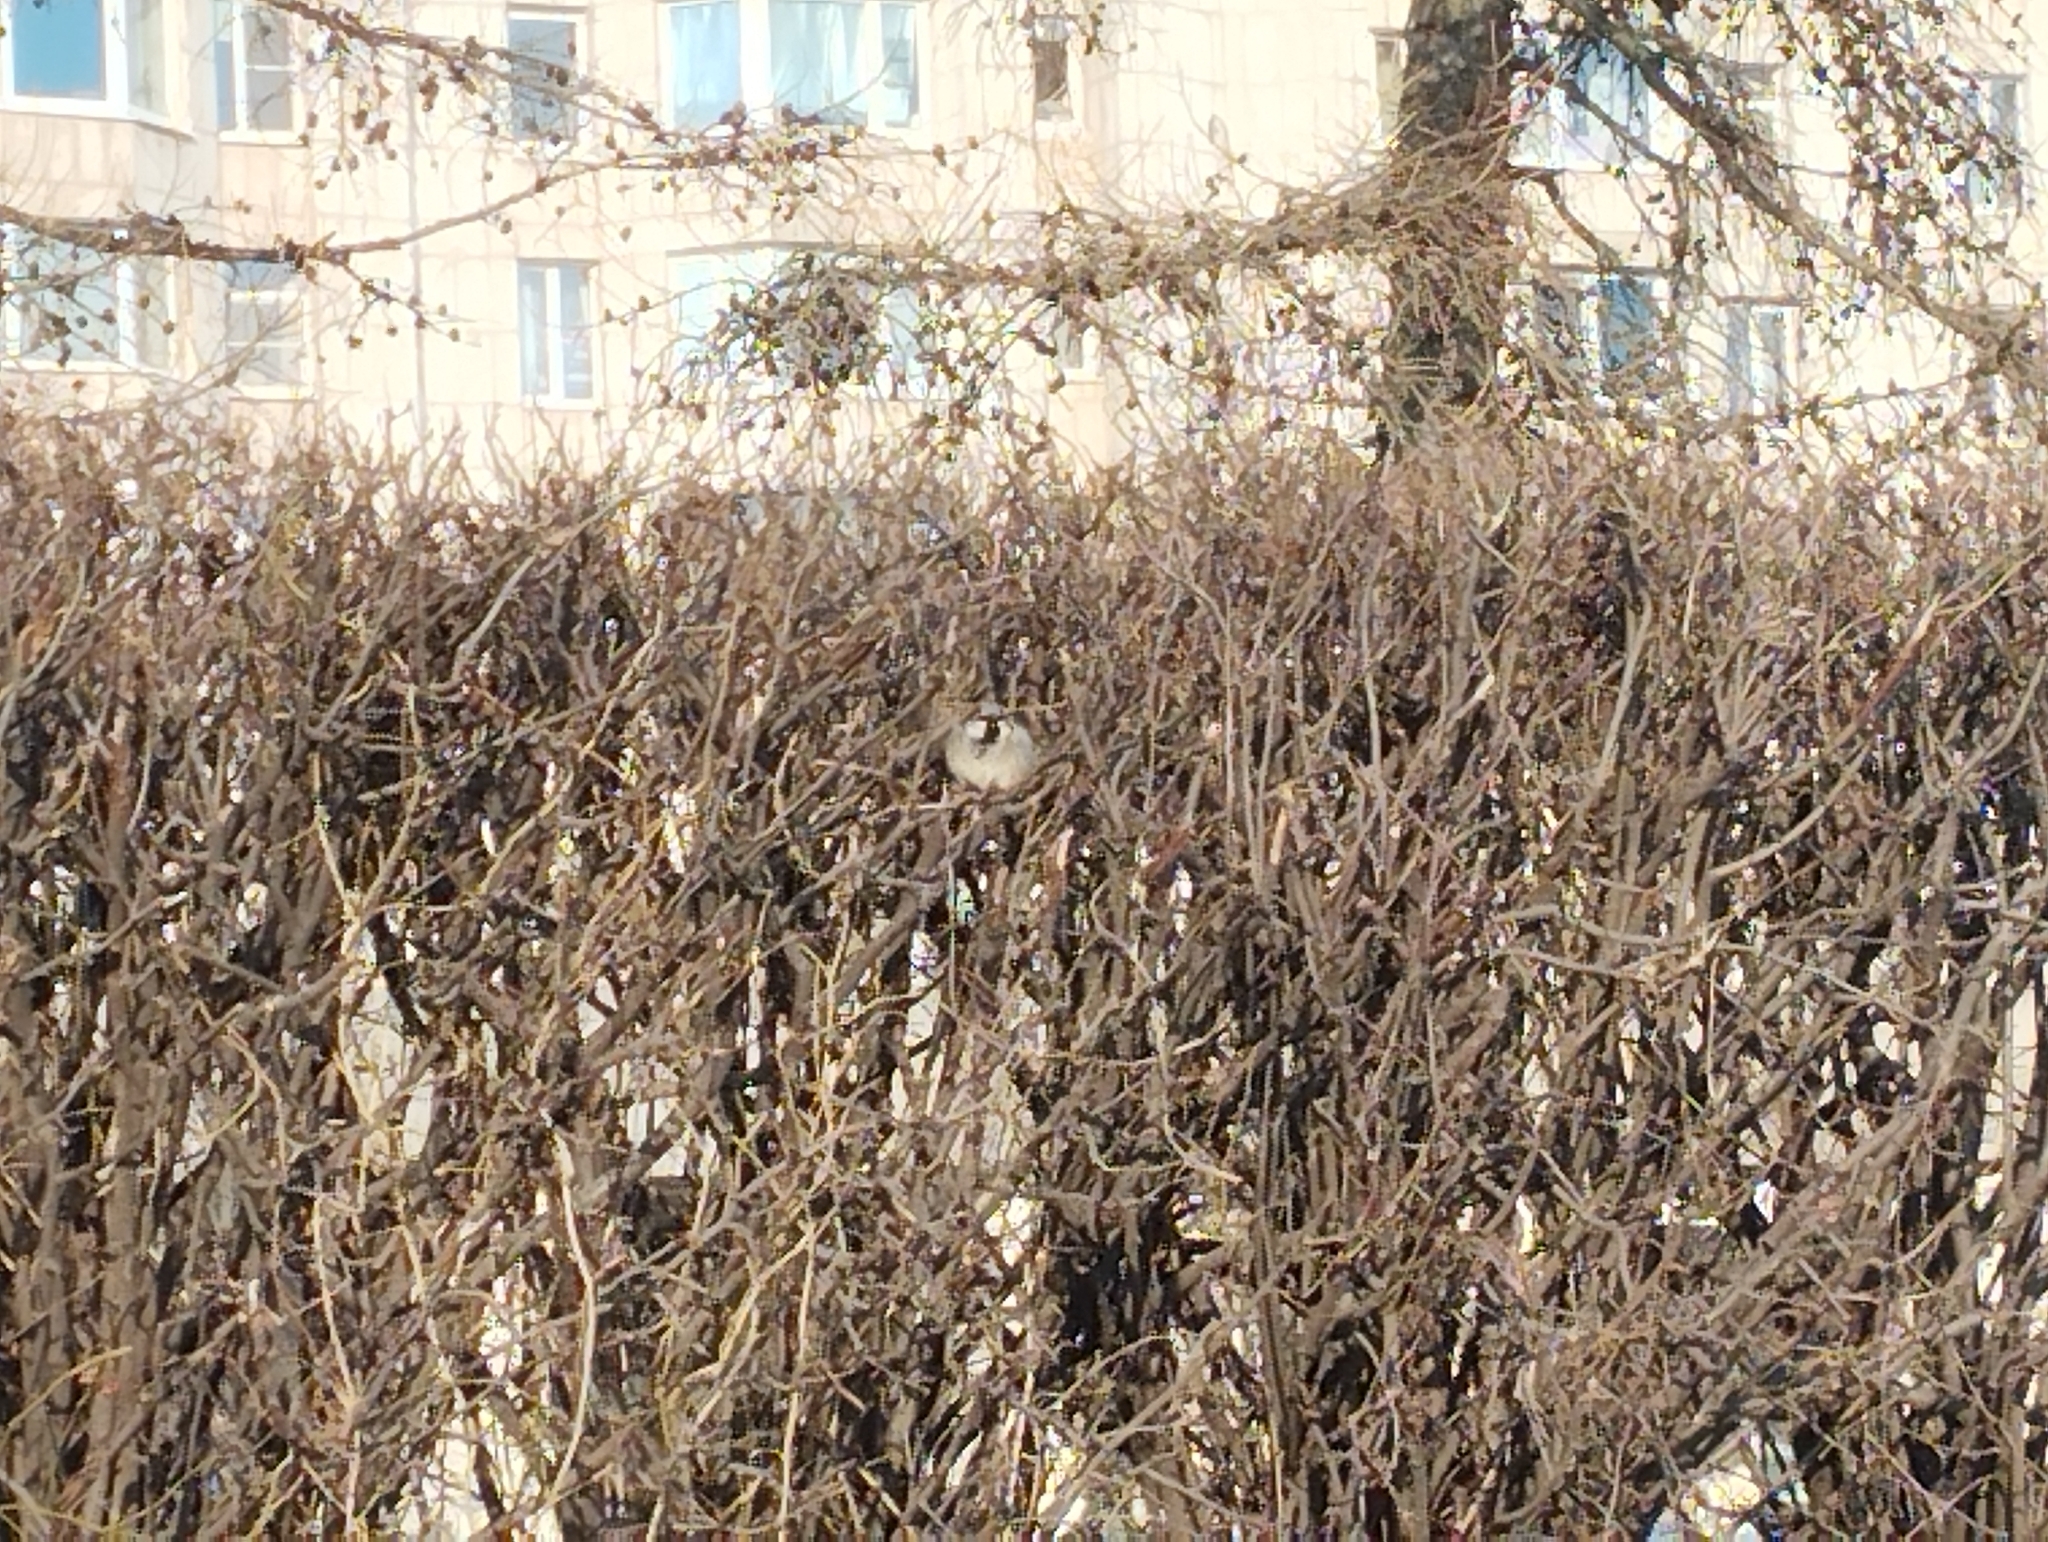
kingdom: Animalia
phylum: Chordata
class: Aves
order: Passeriformes
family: Passeridae
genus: Passer
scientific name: Passer domesticus
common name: House sparrow
